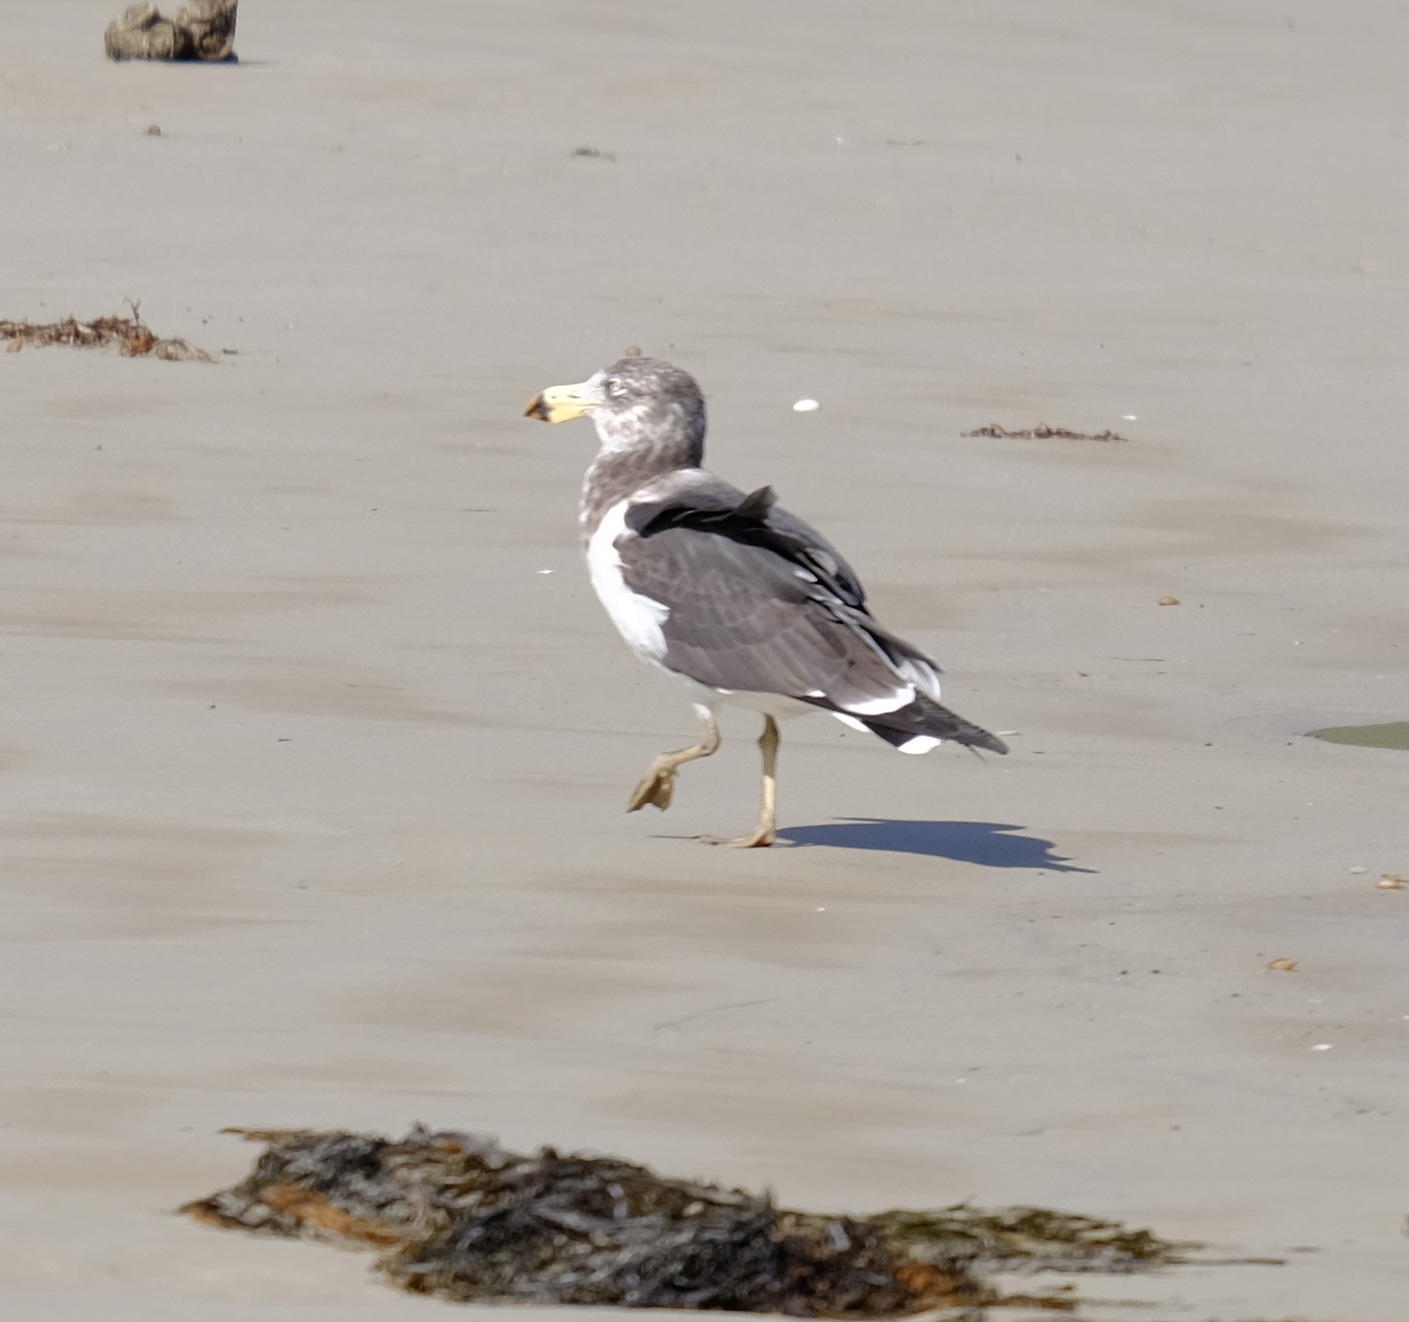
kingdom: Animalia
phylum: Chordata
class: Aves
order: Charadriiformes
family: Laridae
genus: Larus
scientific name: Larus pacificus
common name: Pacific gull
